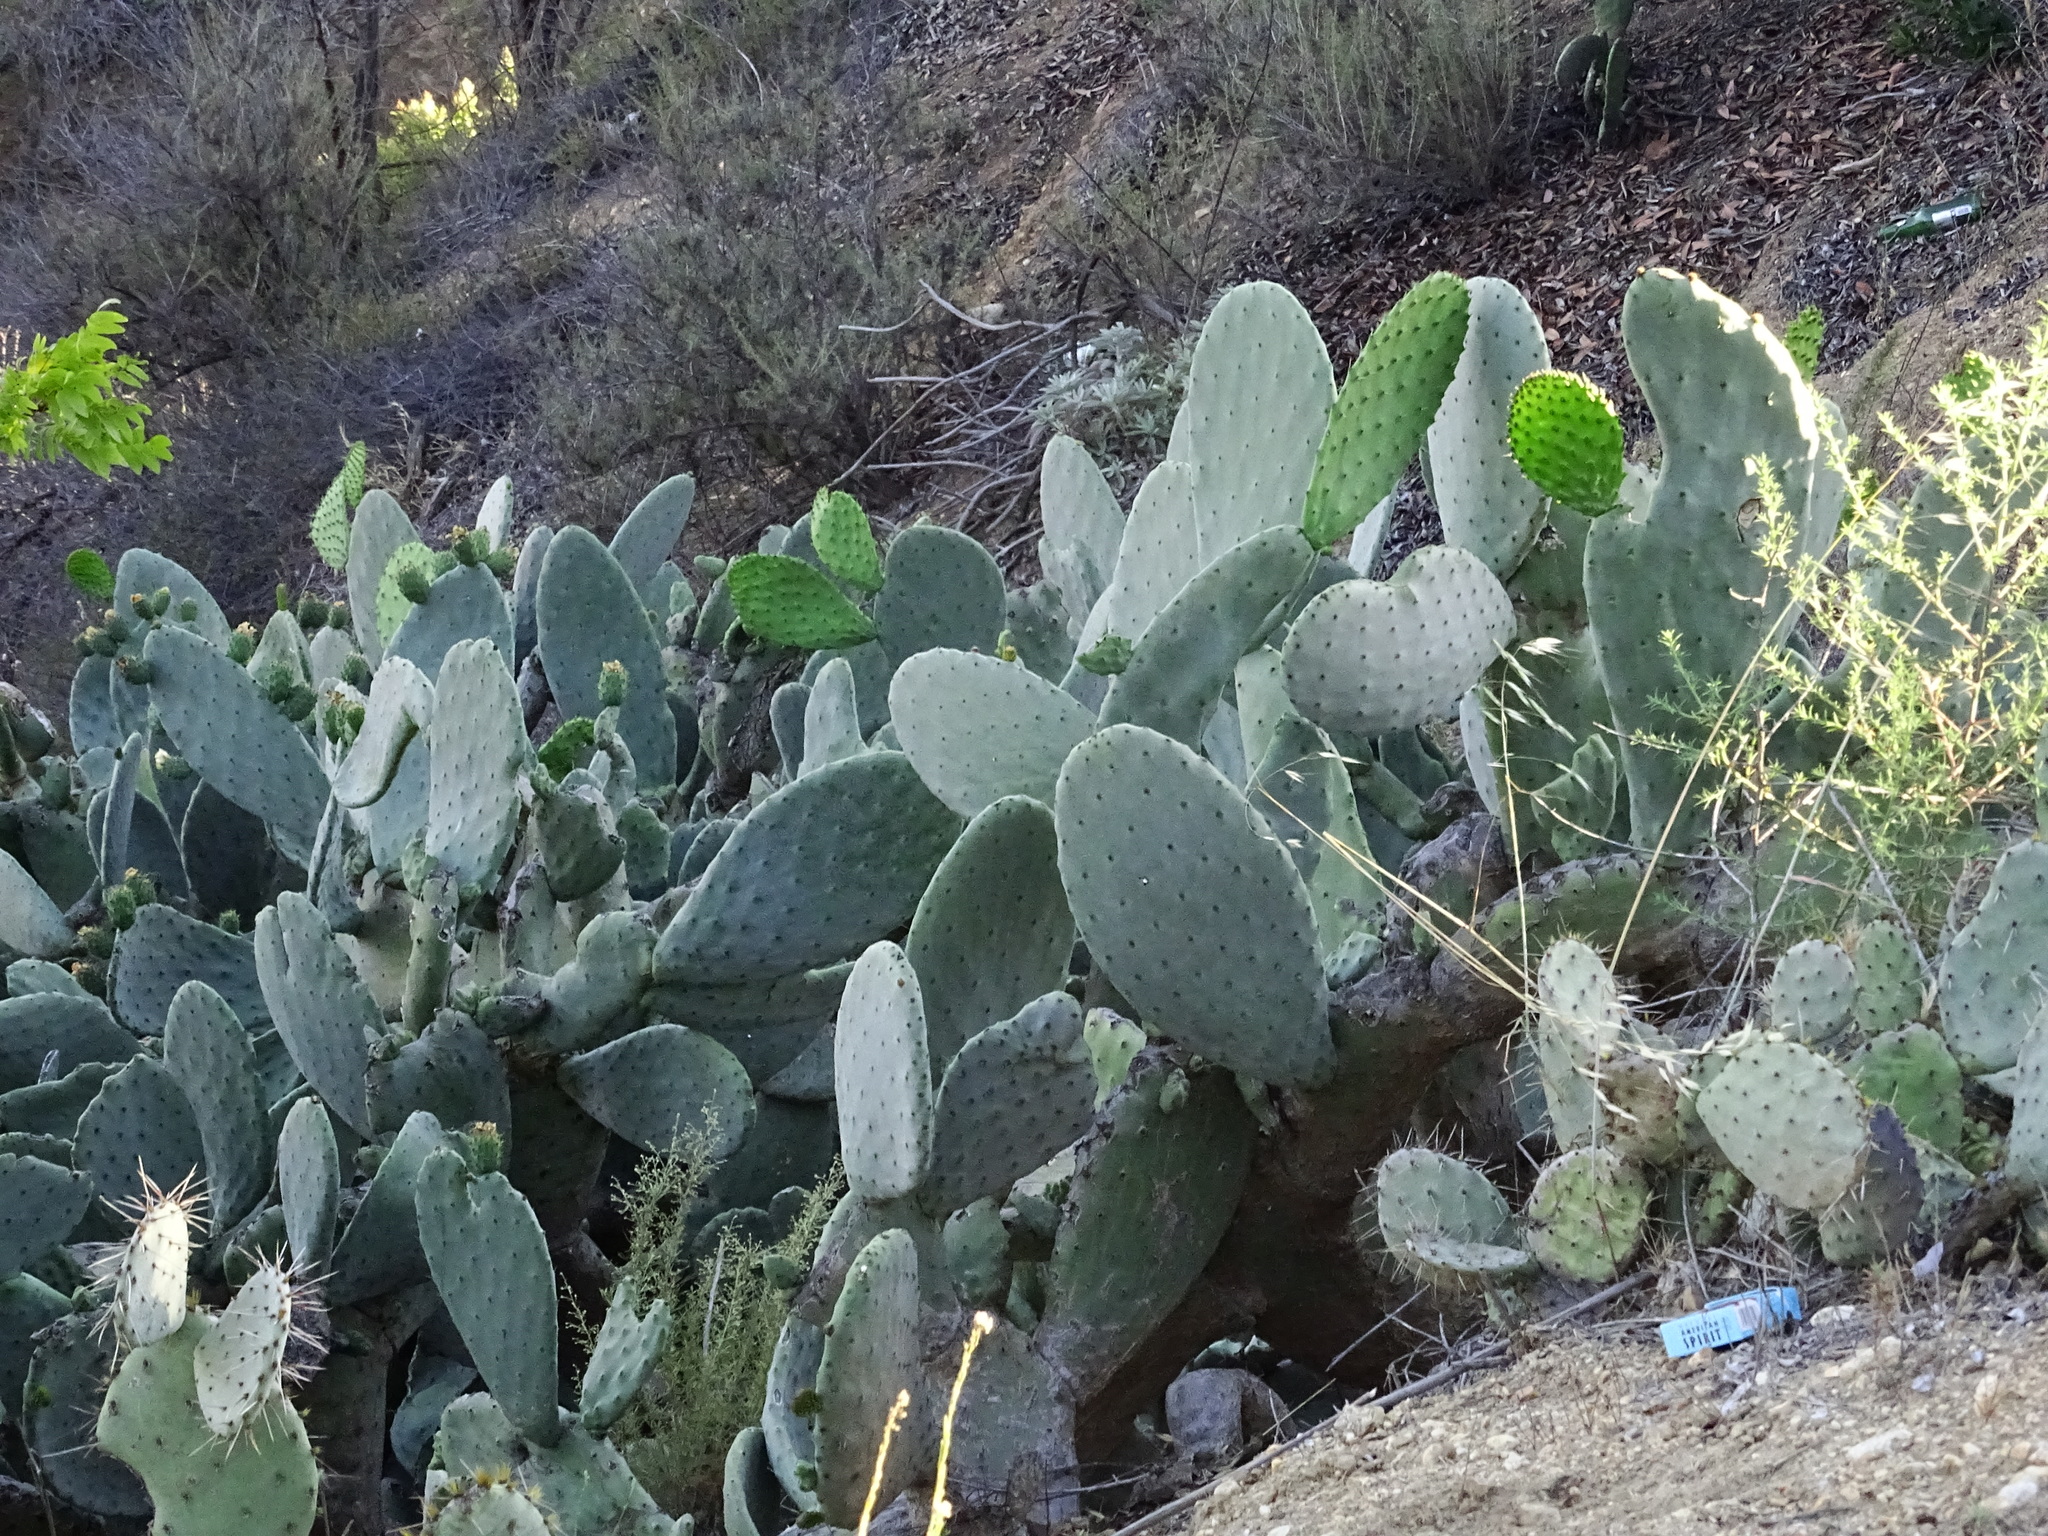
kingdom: Plantae
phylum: Tracheophyta
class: Magnoliopsida
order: Caryophyllales
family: Cactaceae
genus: Opuntia
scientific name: Opuntia ficus-indica
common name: Barbary fig
